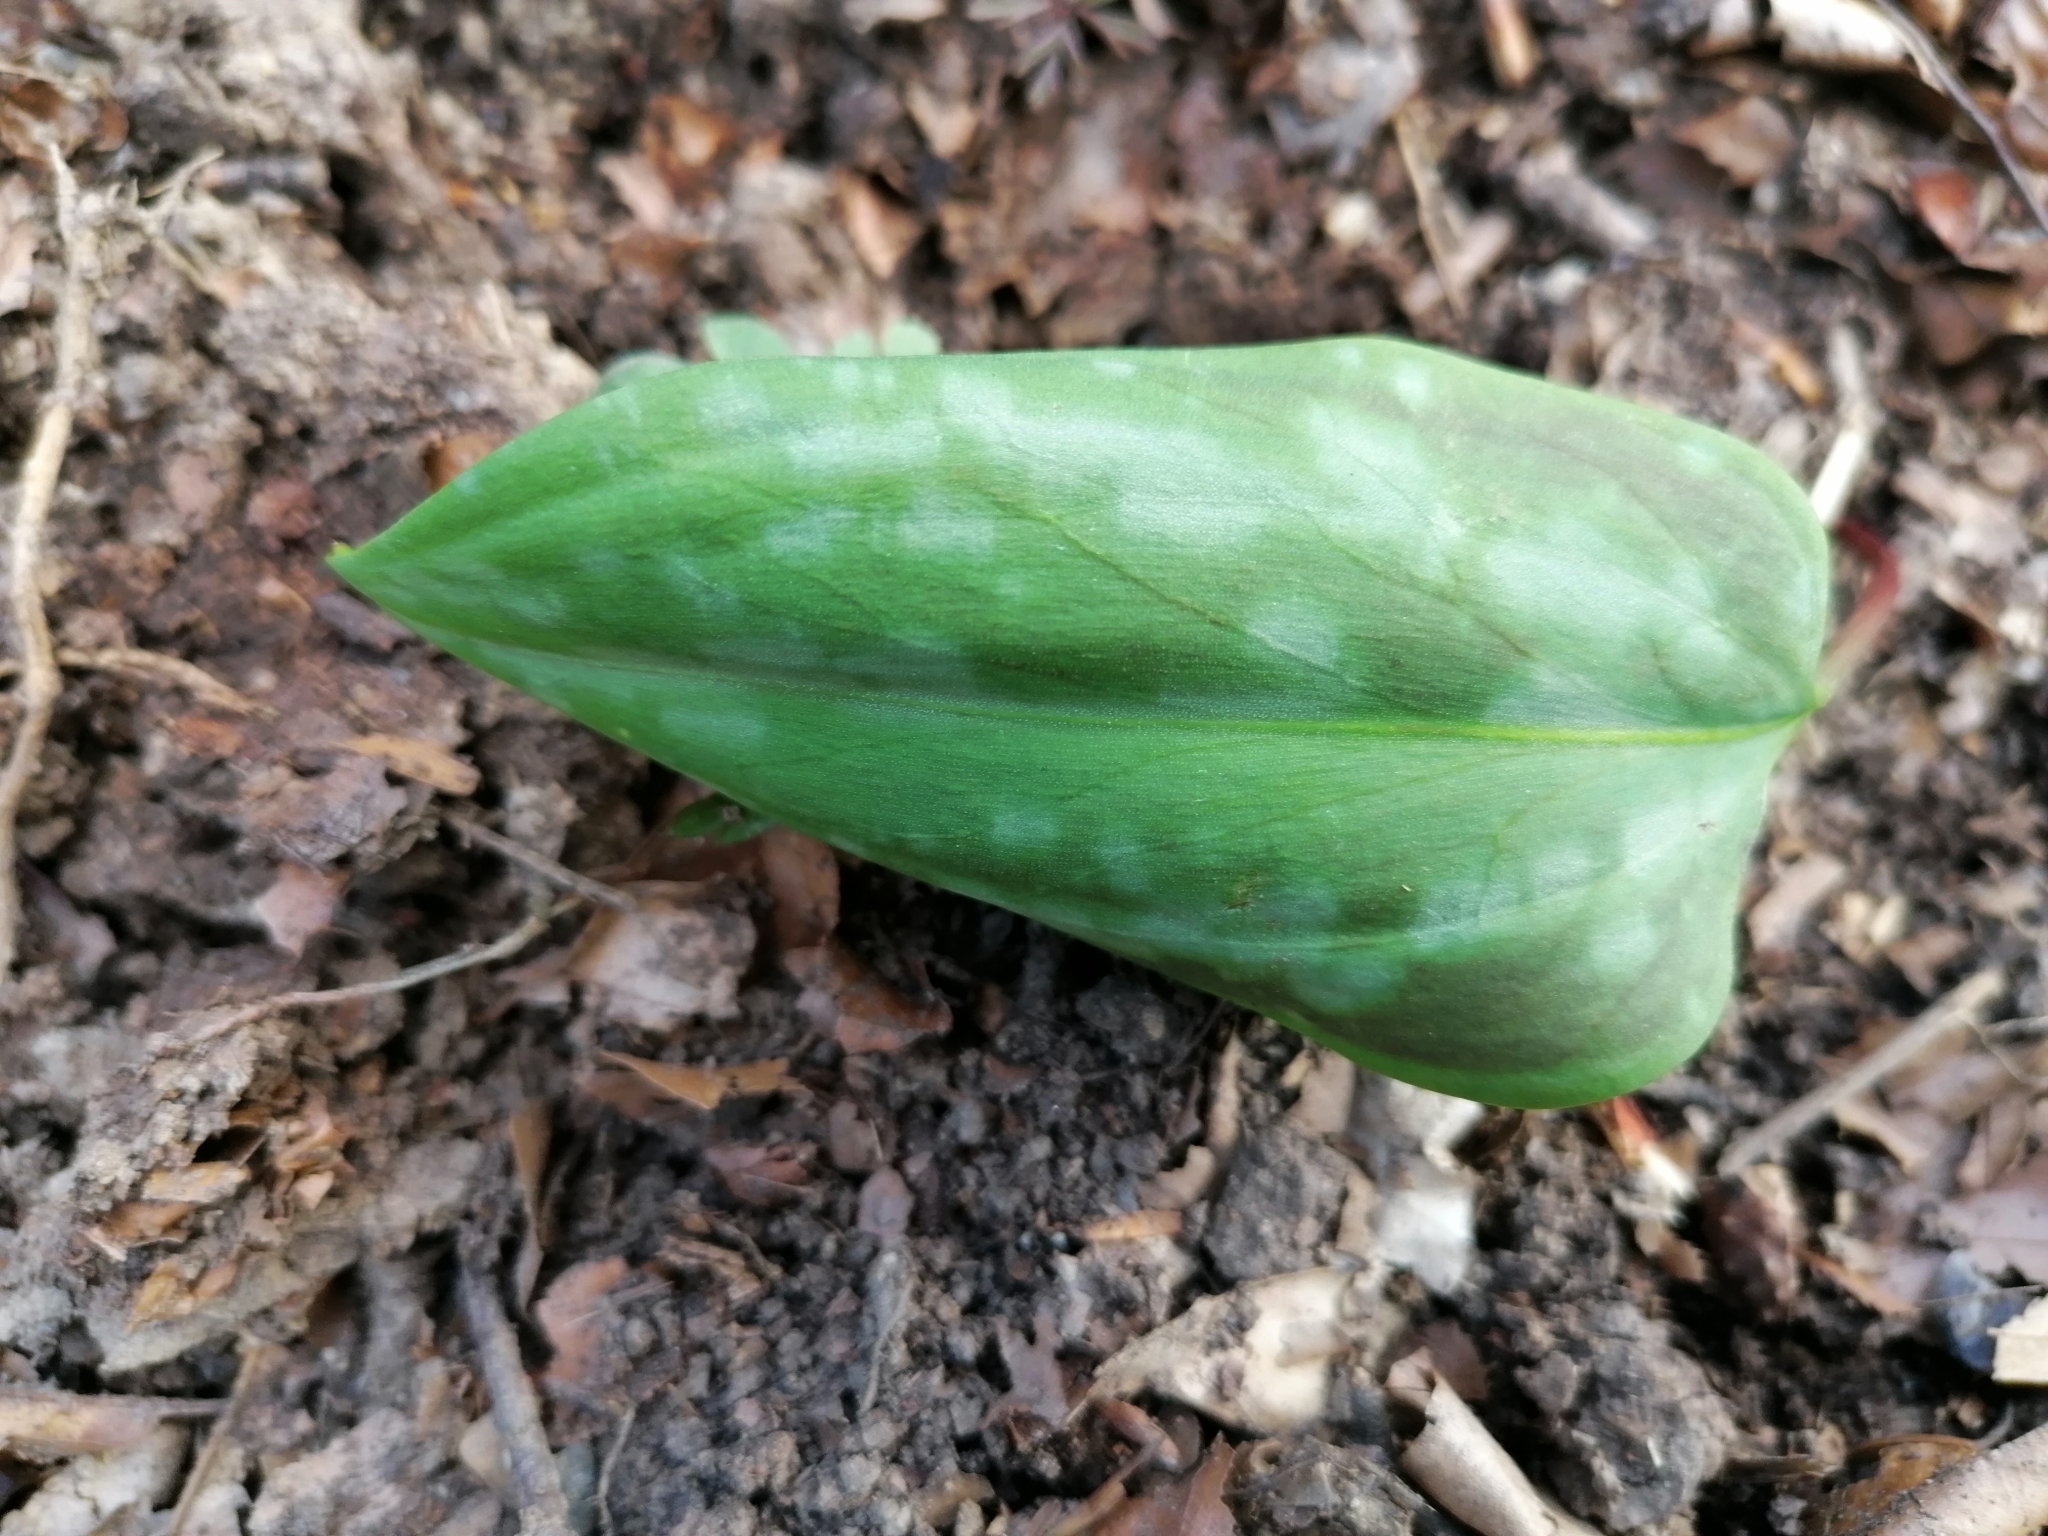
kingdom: Plantae
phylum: Tracheophyta
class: Liliopsida
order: Liliales
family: Liliaceae
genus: Erythronium
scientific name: Erythronium dens-canis
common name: Dog's-tooth-violet
